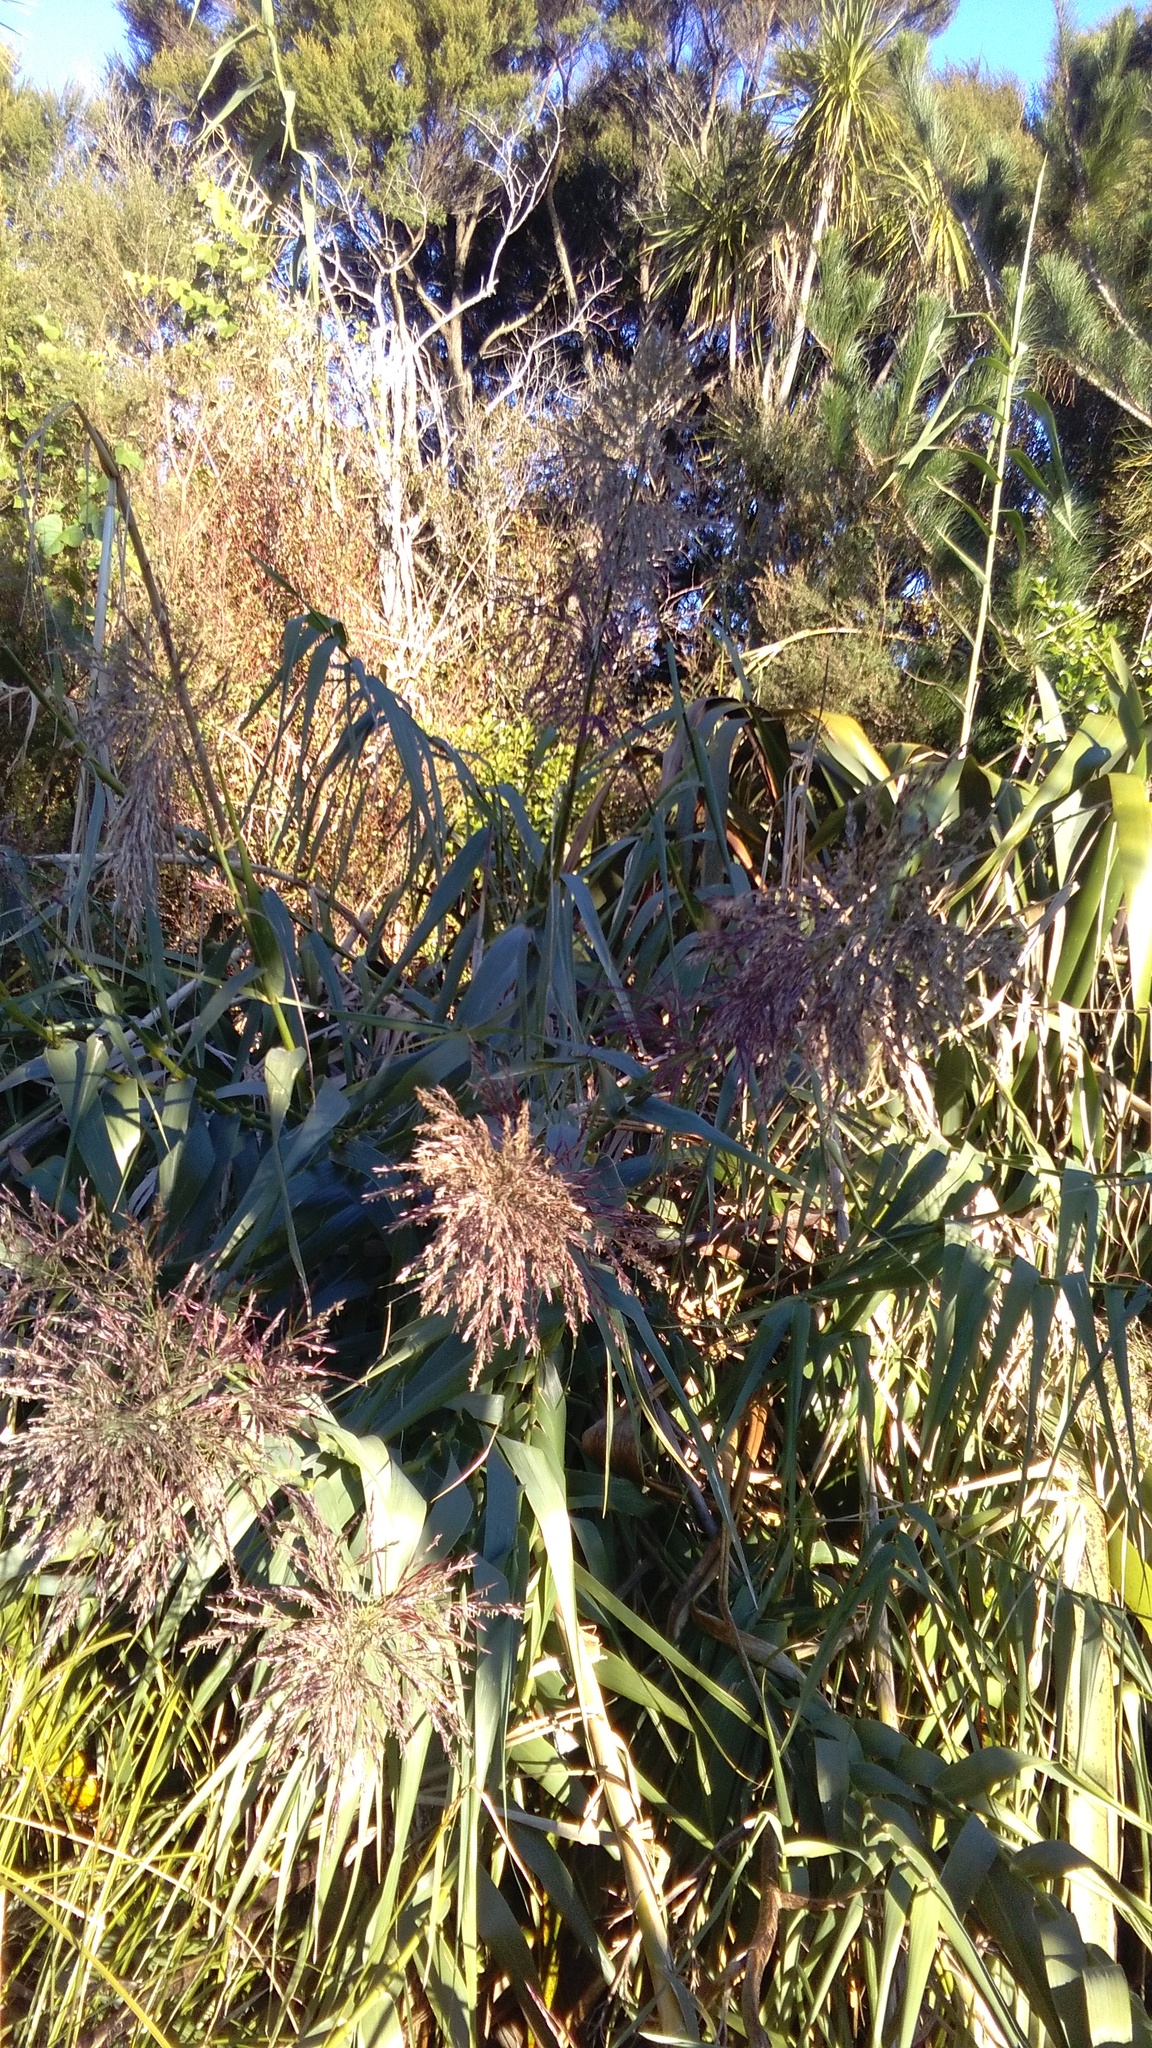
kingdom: Plantae
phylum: Tracheophyta
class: Liliopsida
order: Poales
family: Poaceae
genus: Arundo
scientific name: Arundo donax
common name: Giant reed
